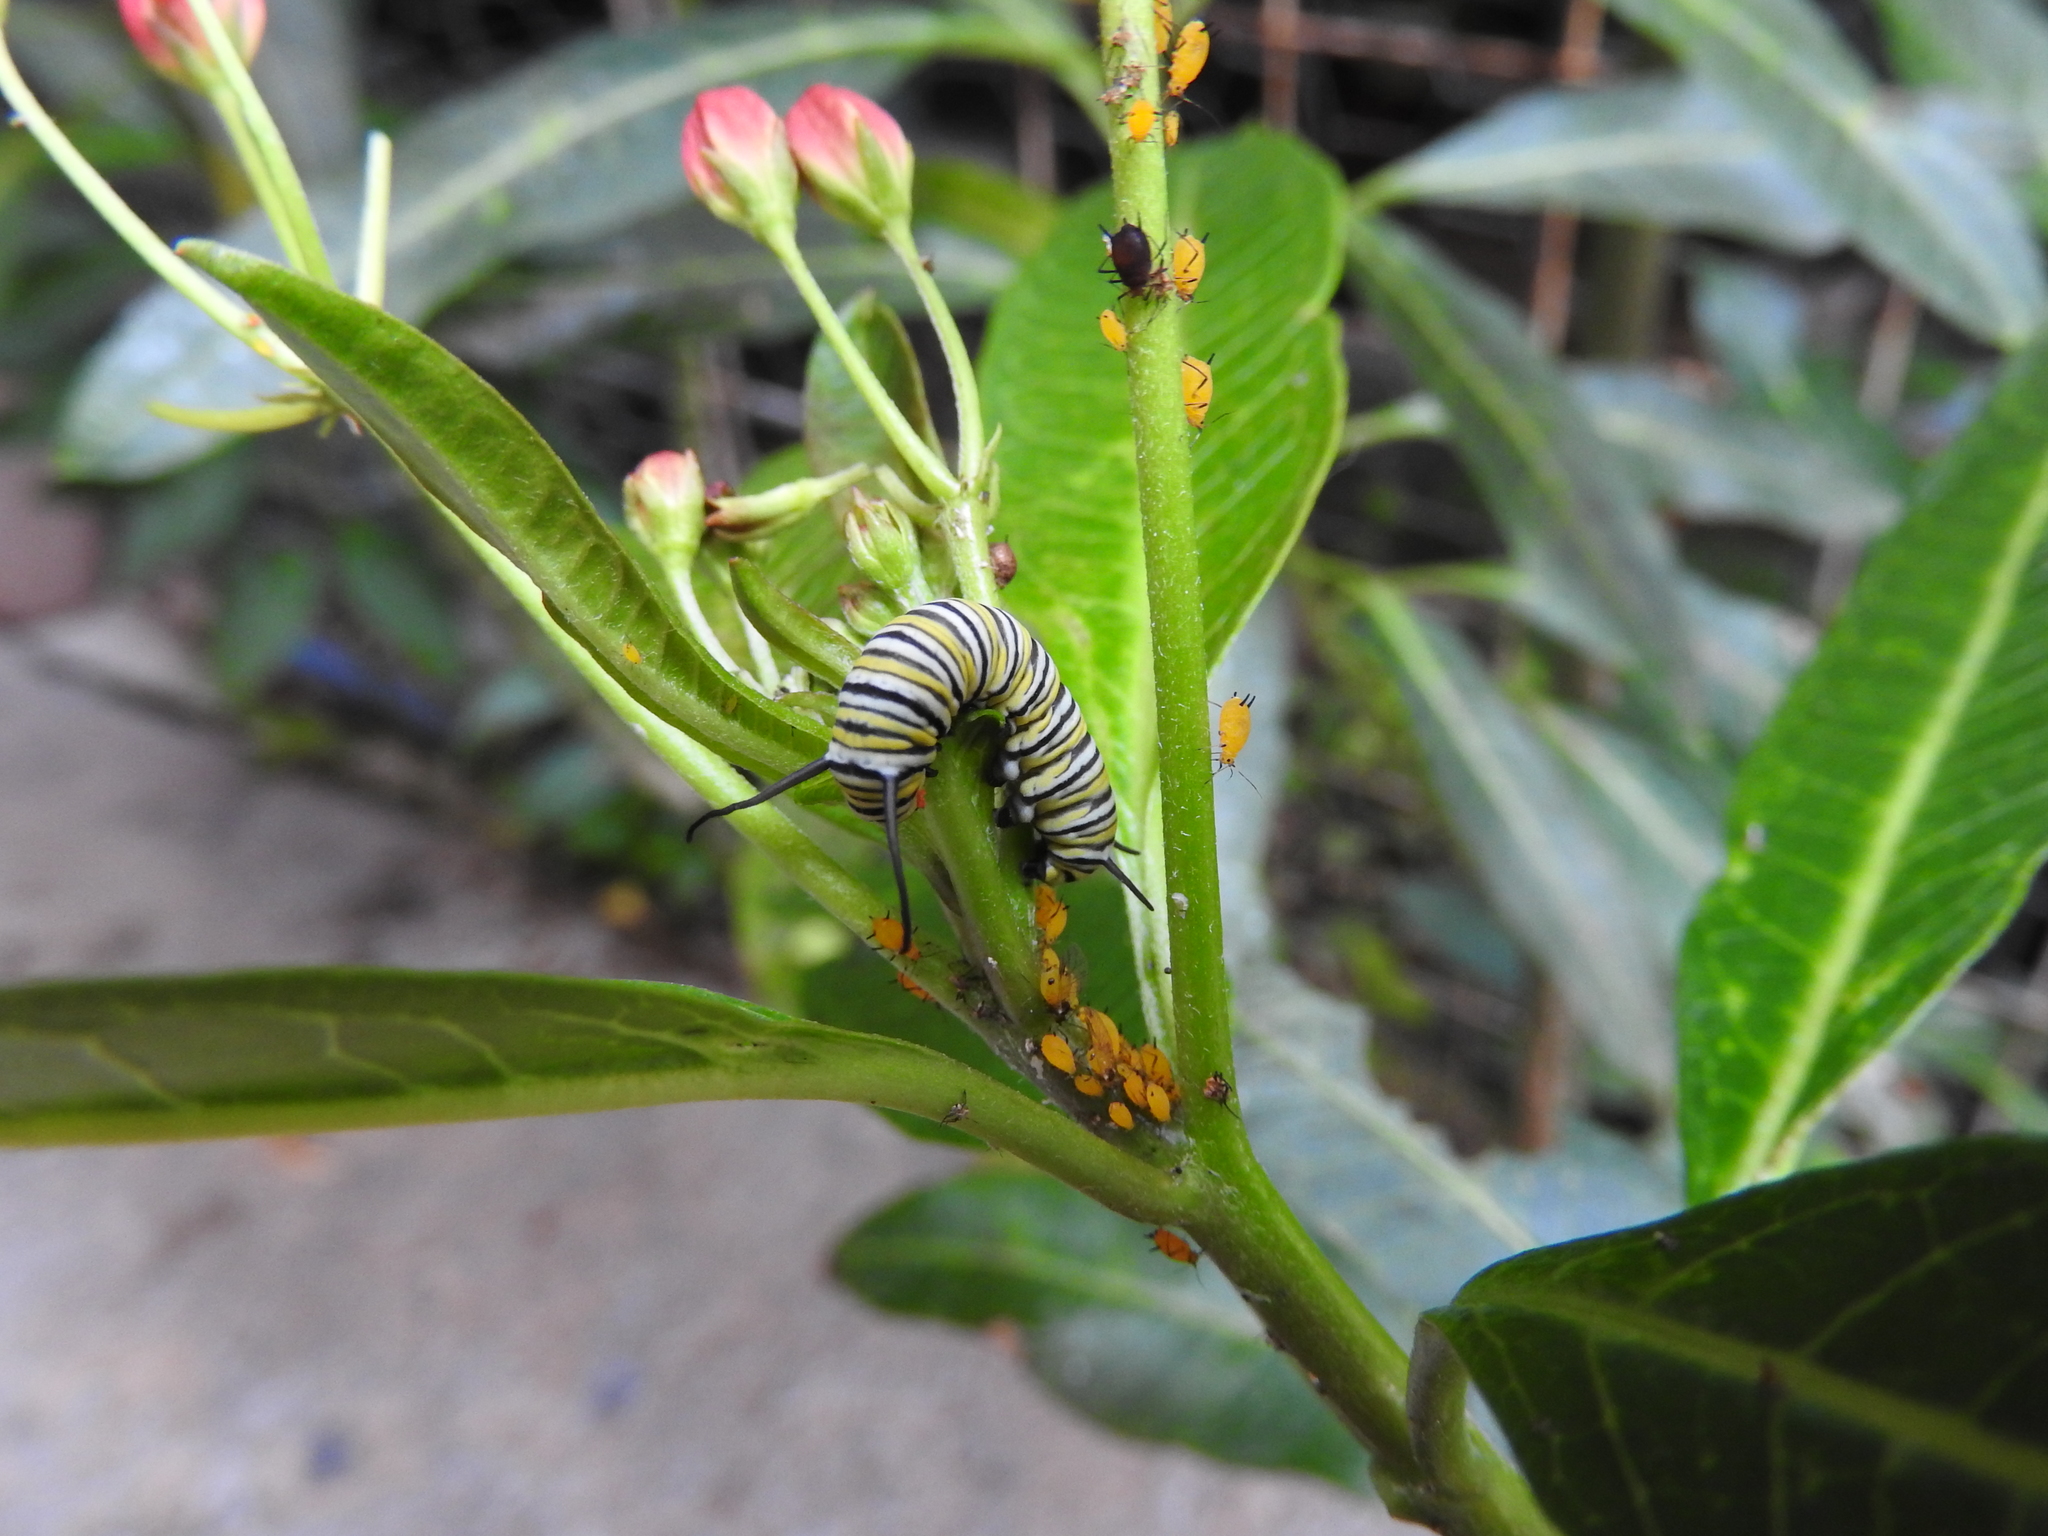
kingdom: Animalia
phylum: Arthropoda
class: Insecta
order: Lepidoptera
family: Nymphalidae
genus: Danaus
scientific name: Danaus plexippus
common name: Monarch
